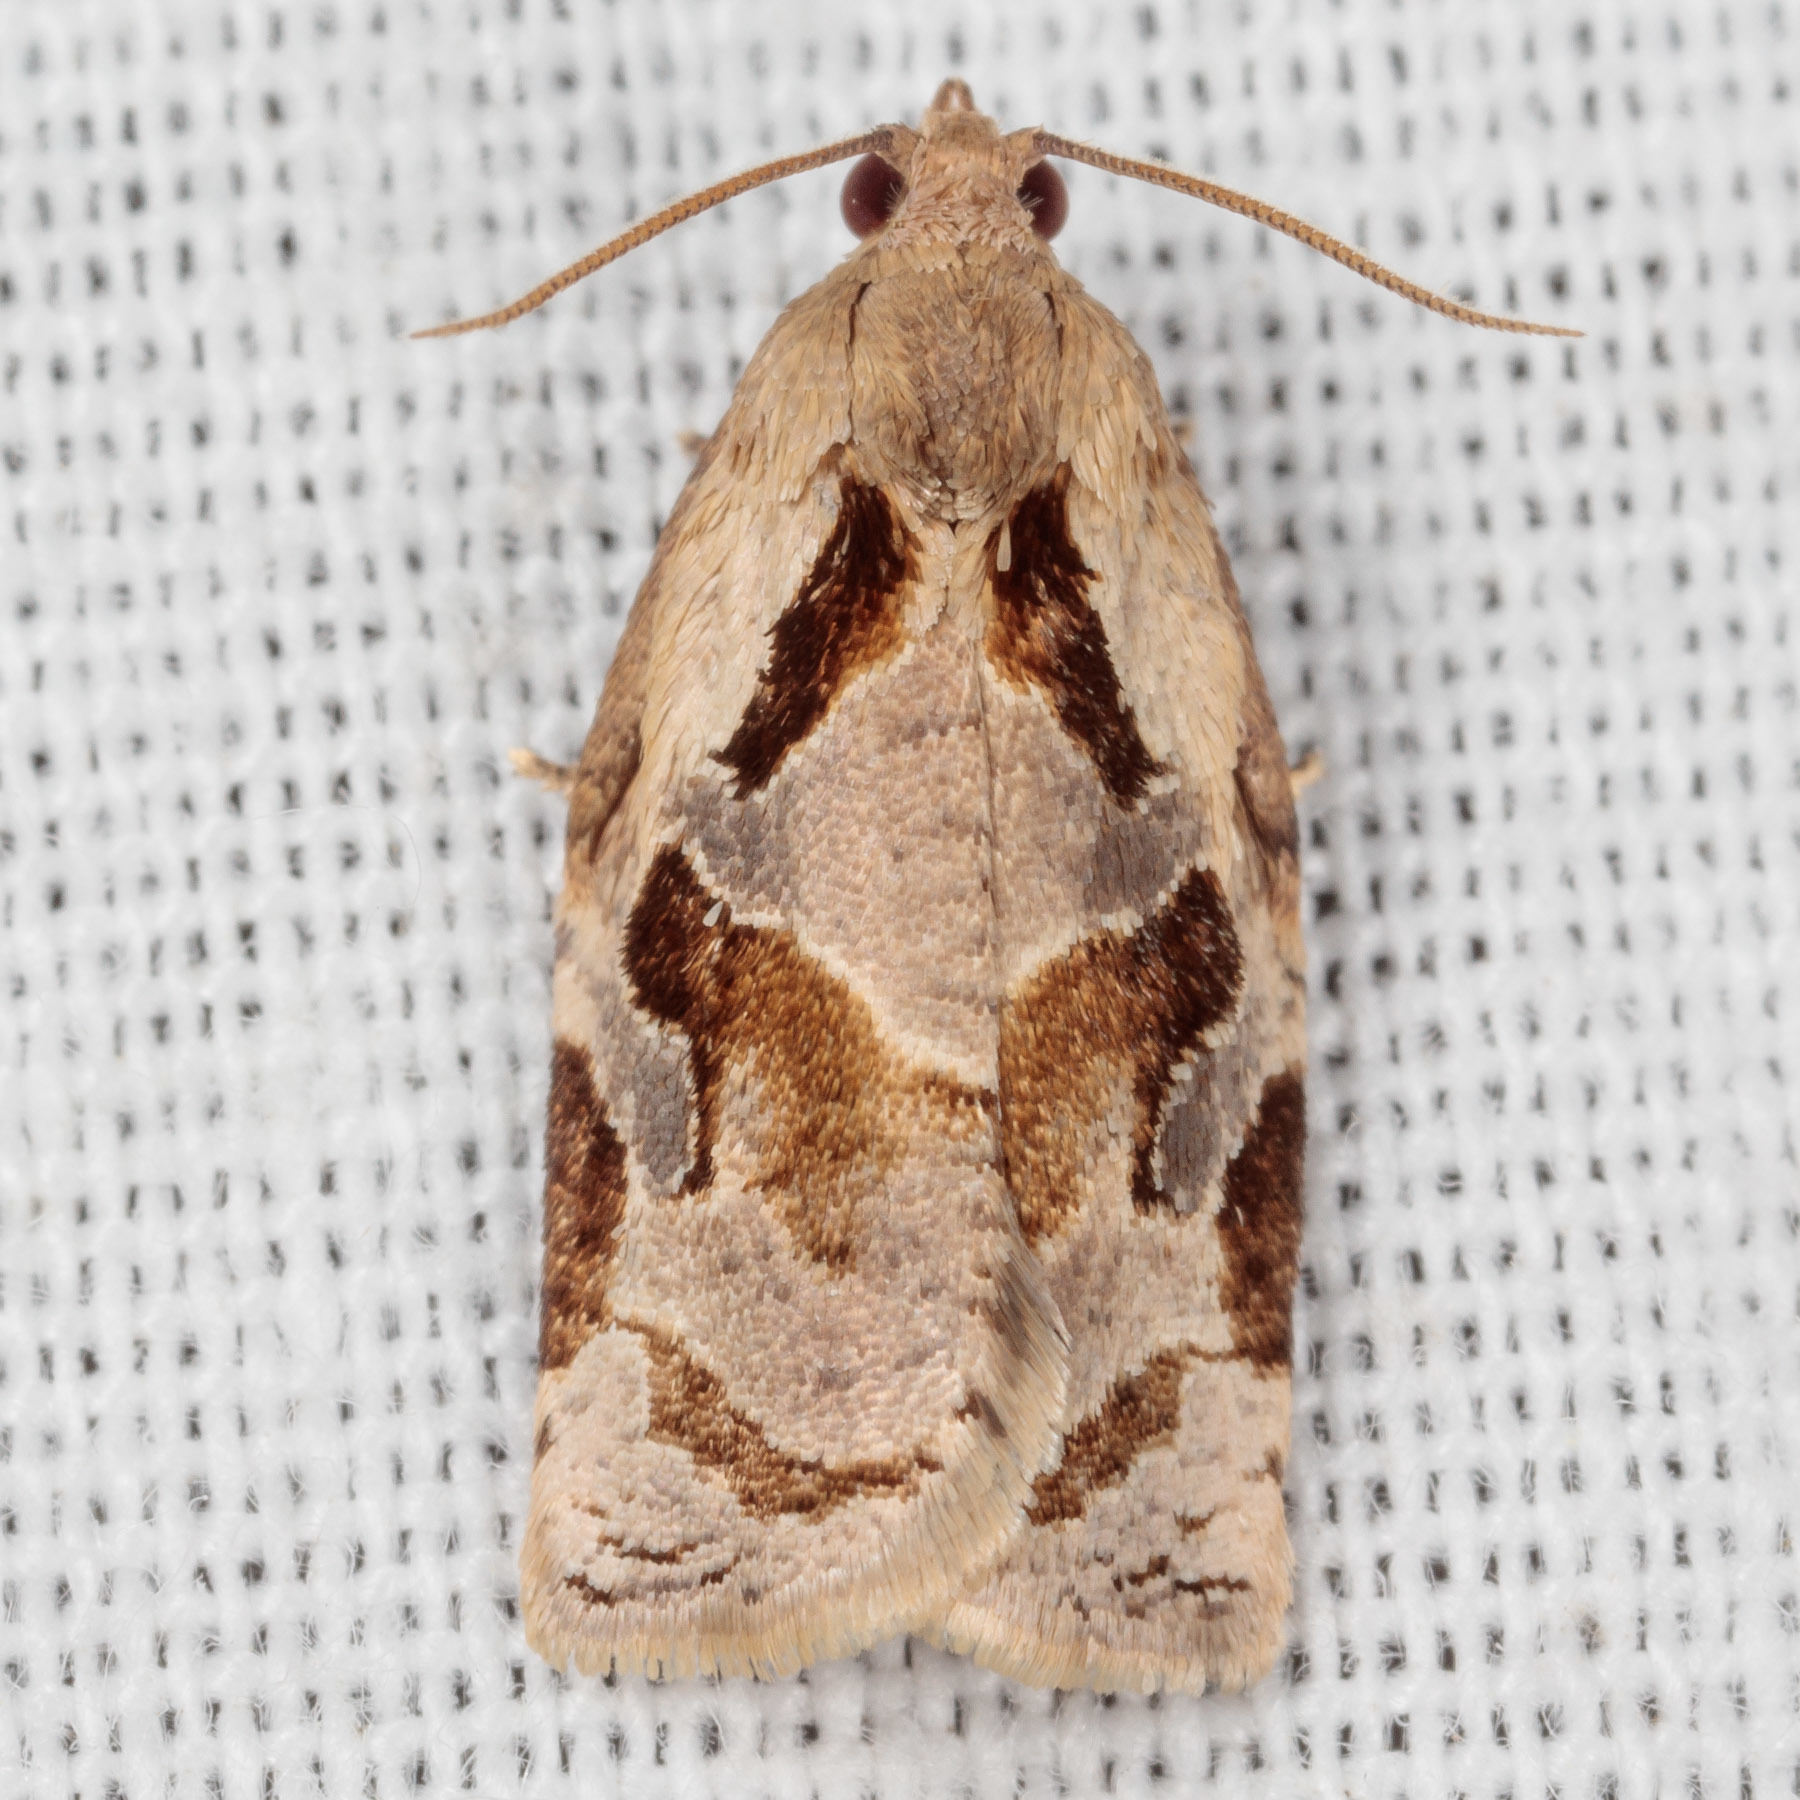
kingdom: Animalia
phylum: Arthropoda
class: Insecta
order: Lepidoptera
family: Tortricidae
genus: Archips
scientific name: Archips grisea
